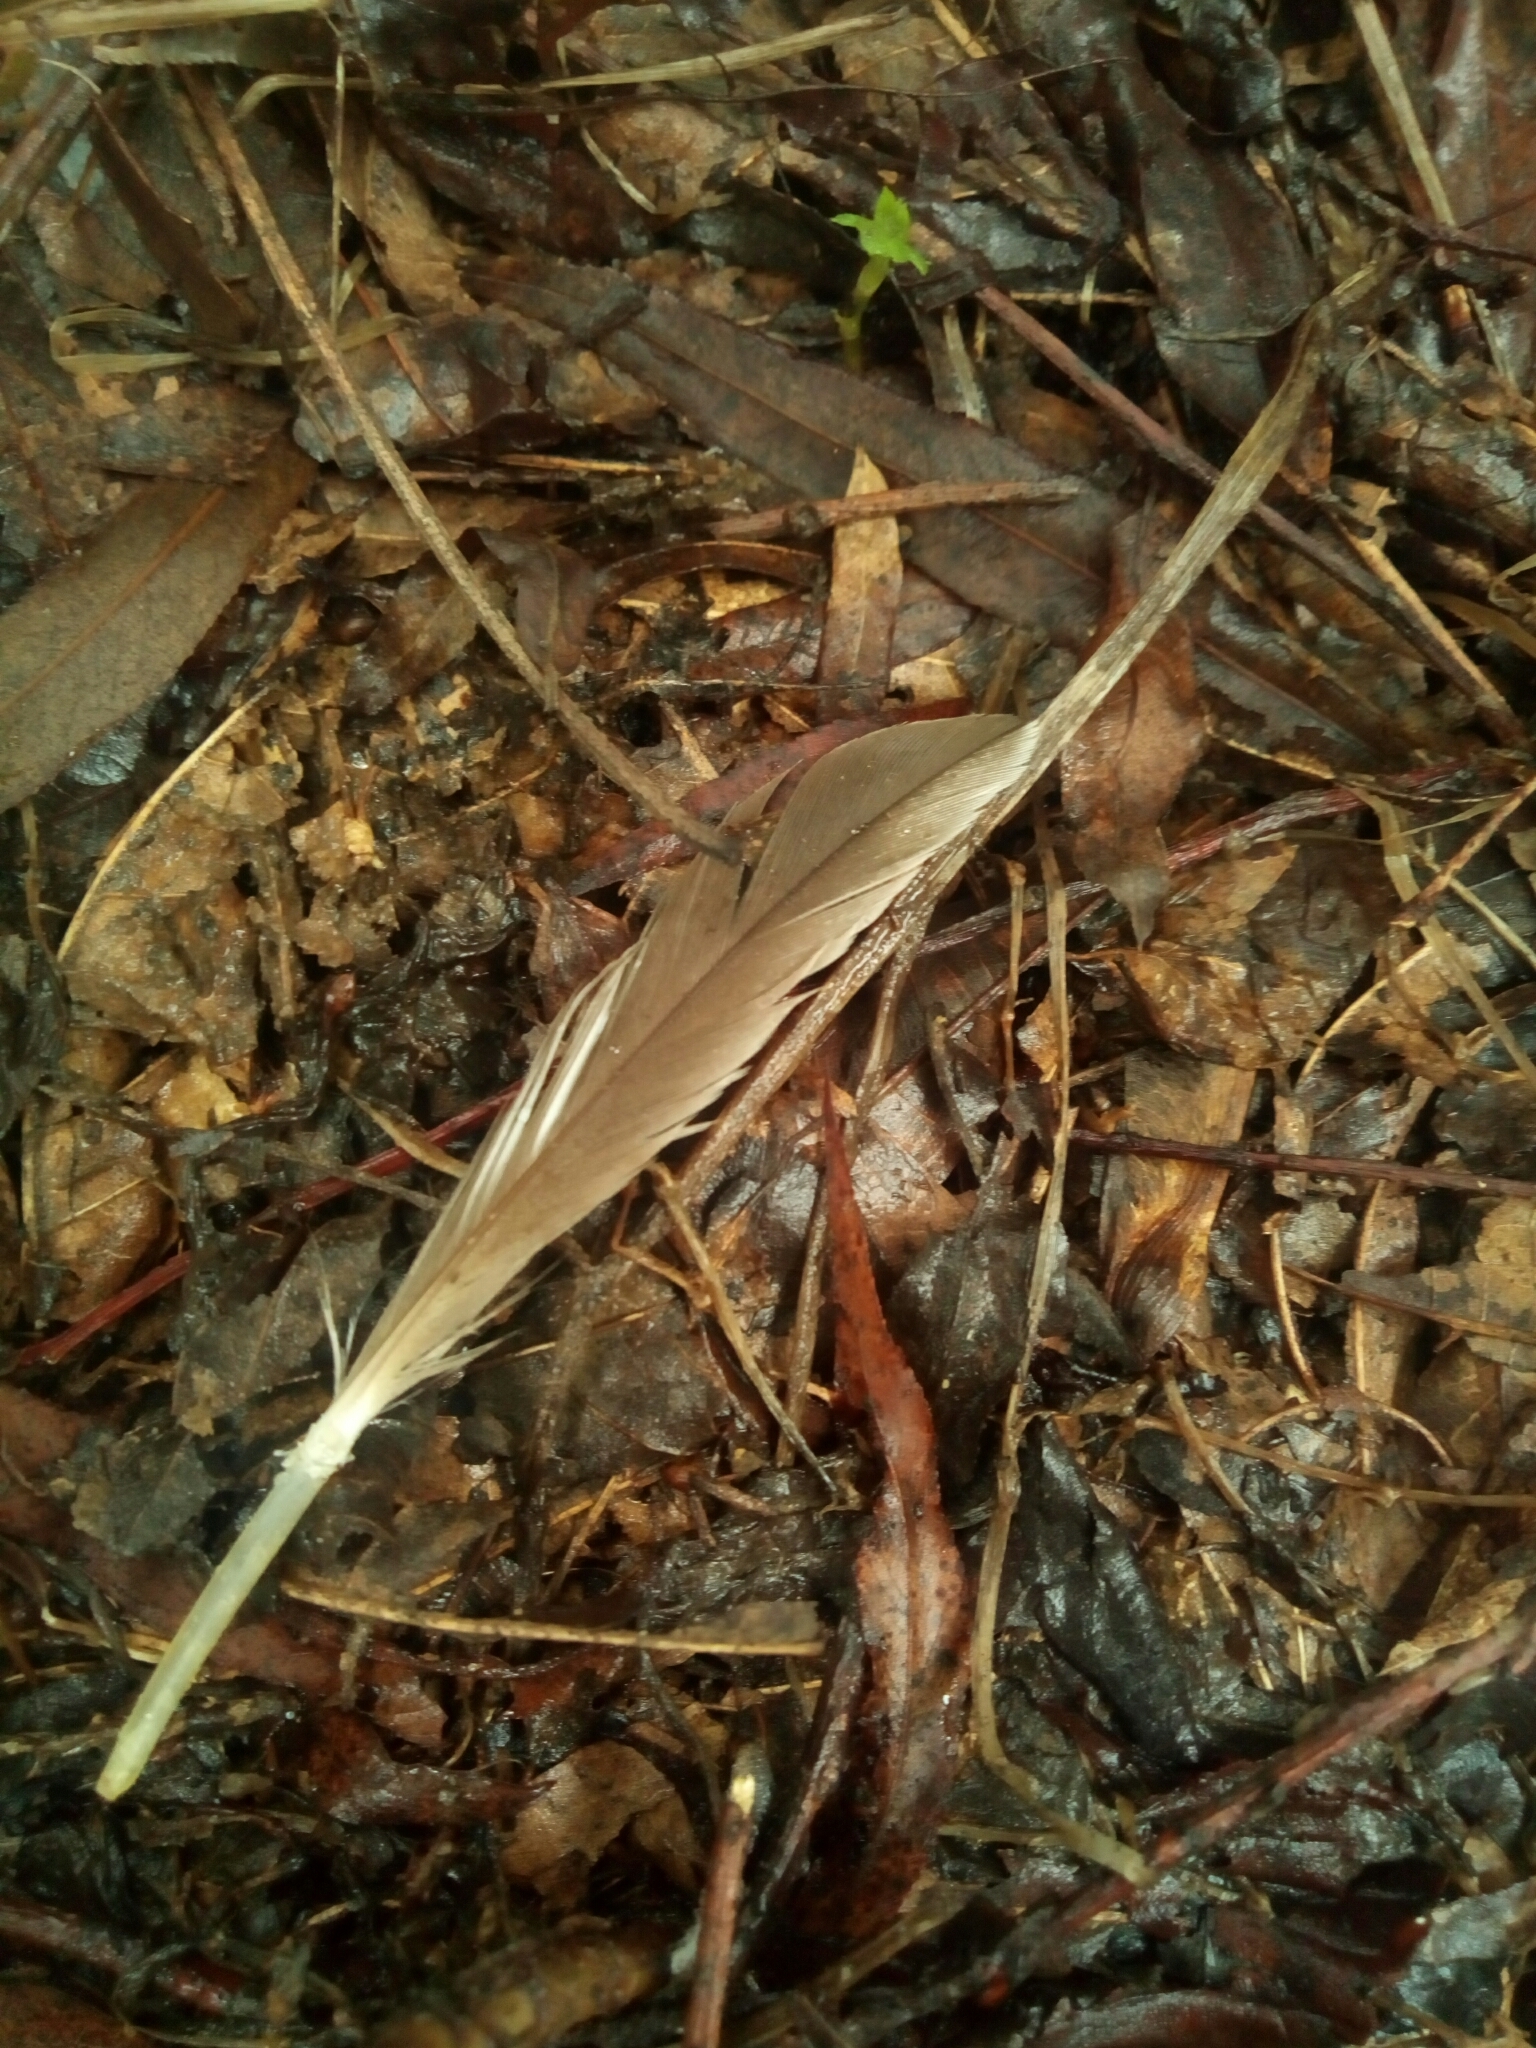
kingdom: Animalia
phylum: Chordata
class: Aves
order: Anseriformes
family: Anatidae
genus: Branta
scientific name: Branta canadensis
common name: Canada goose
